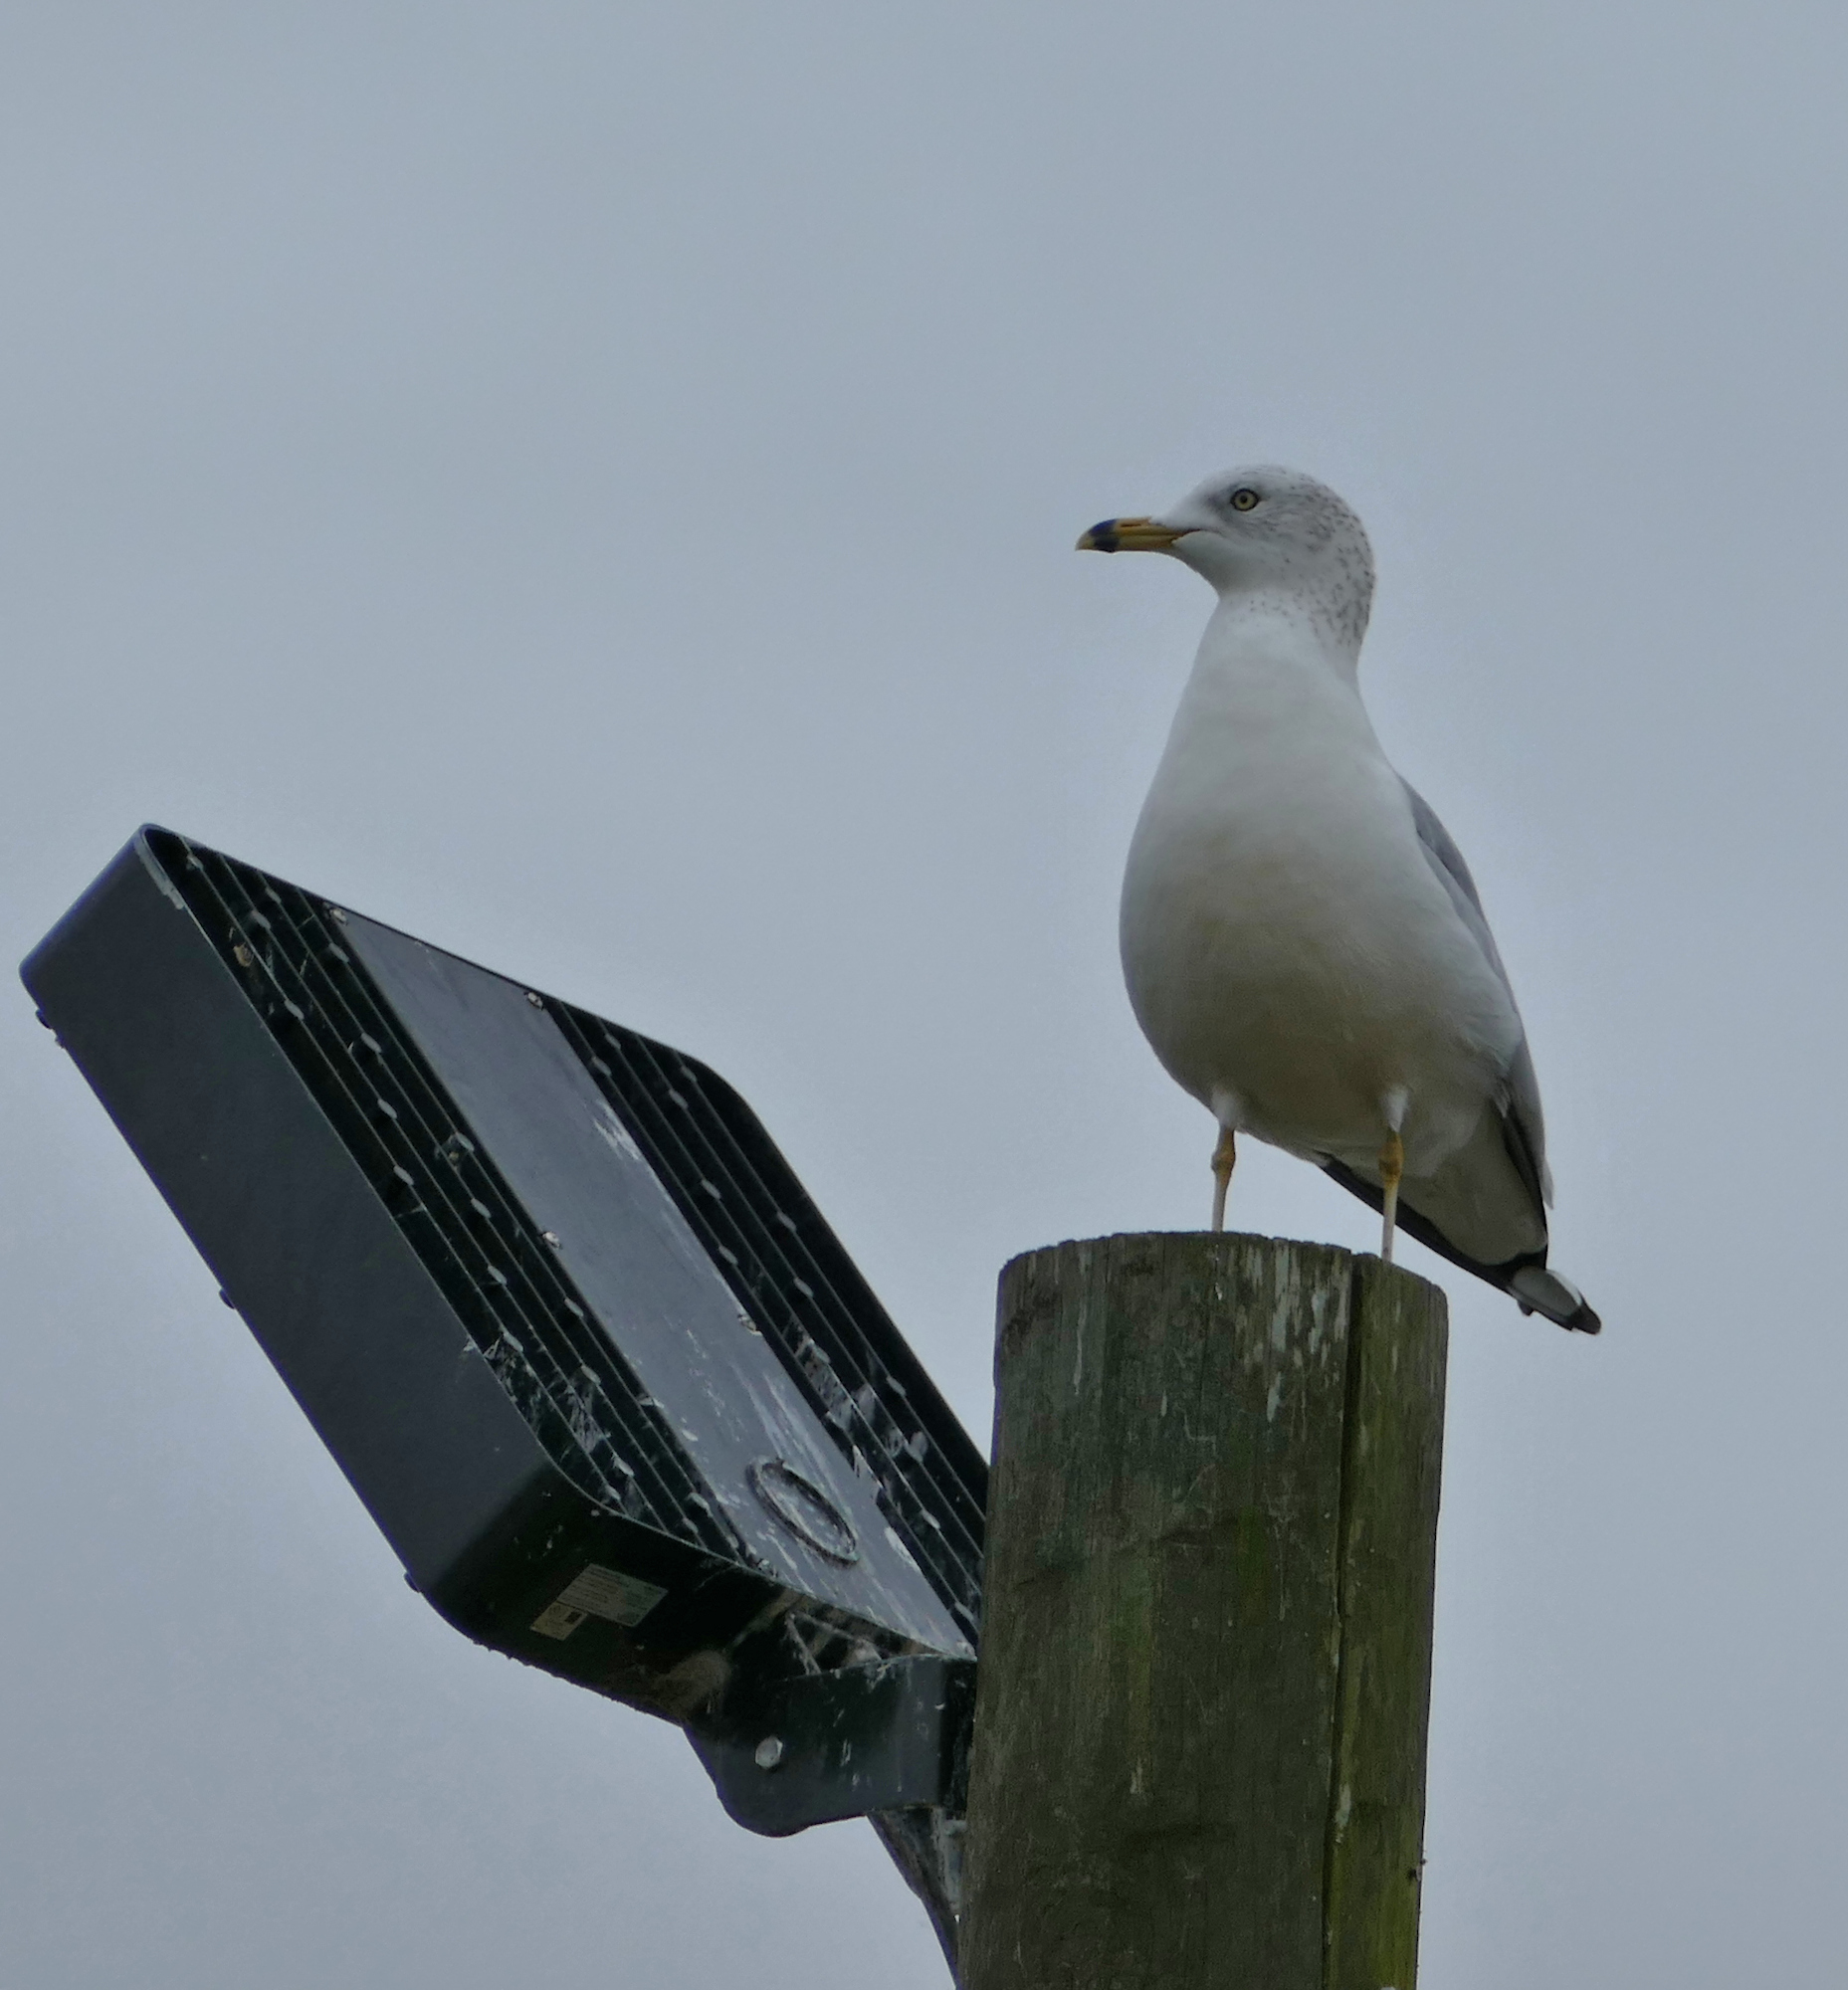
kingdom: Animalia
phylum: Chordata
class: Aves
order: Charadriiformes
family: Laridae
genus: Larus
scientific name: Larus delawarensis
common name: Ring-billed gull
